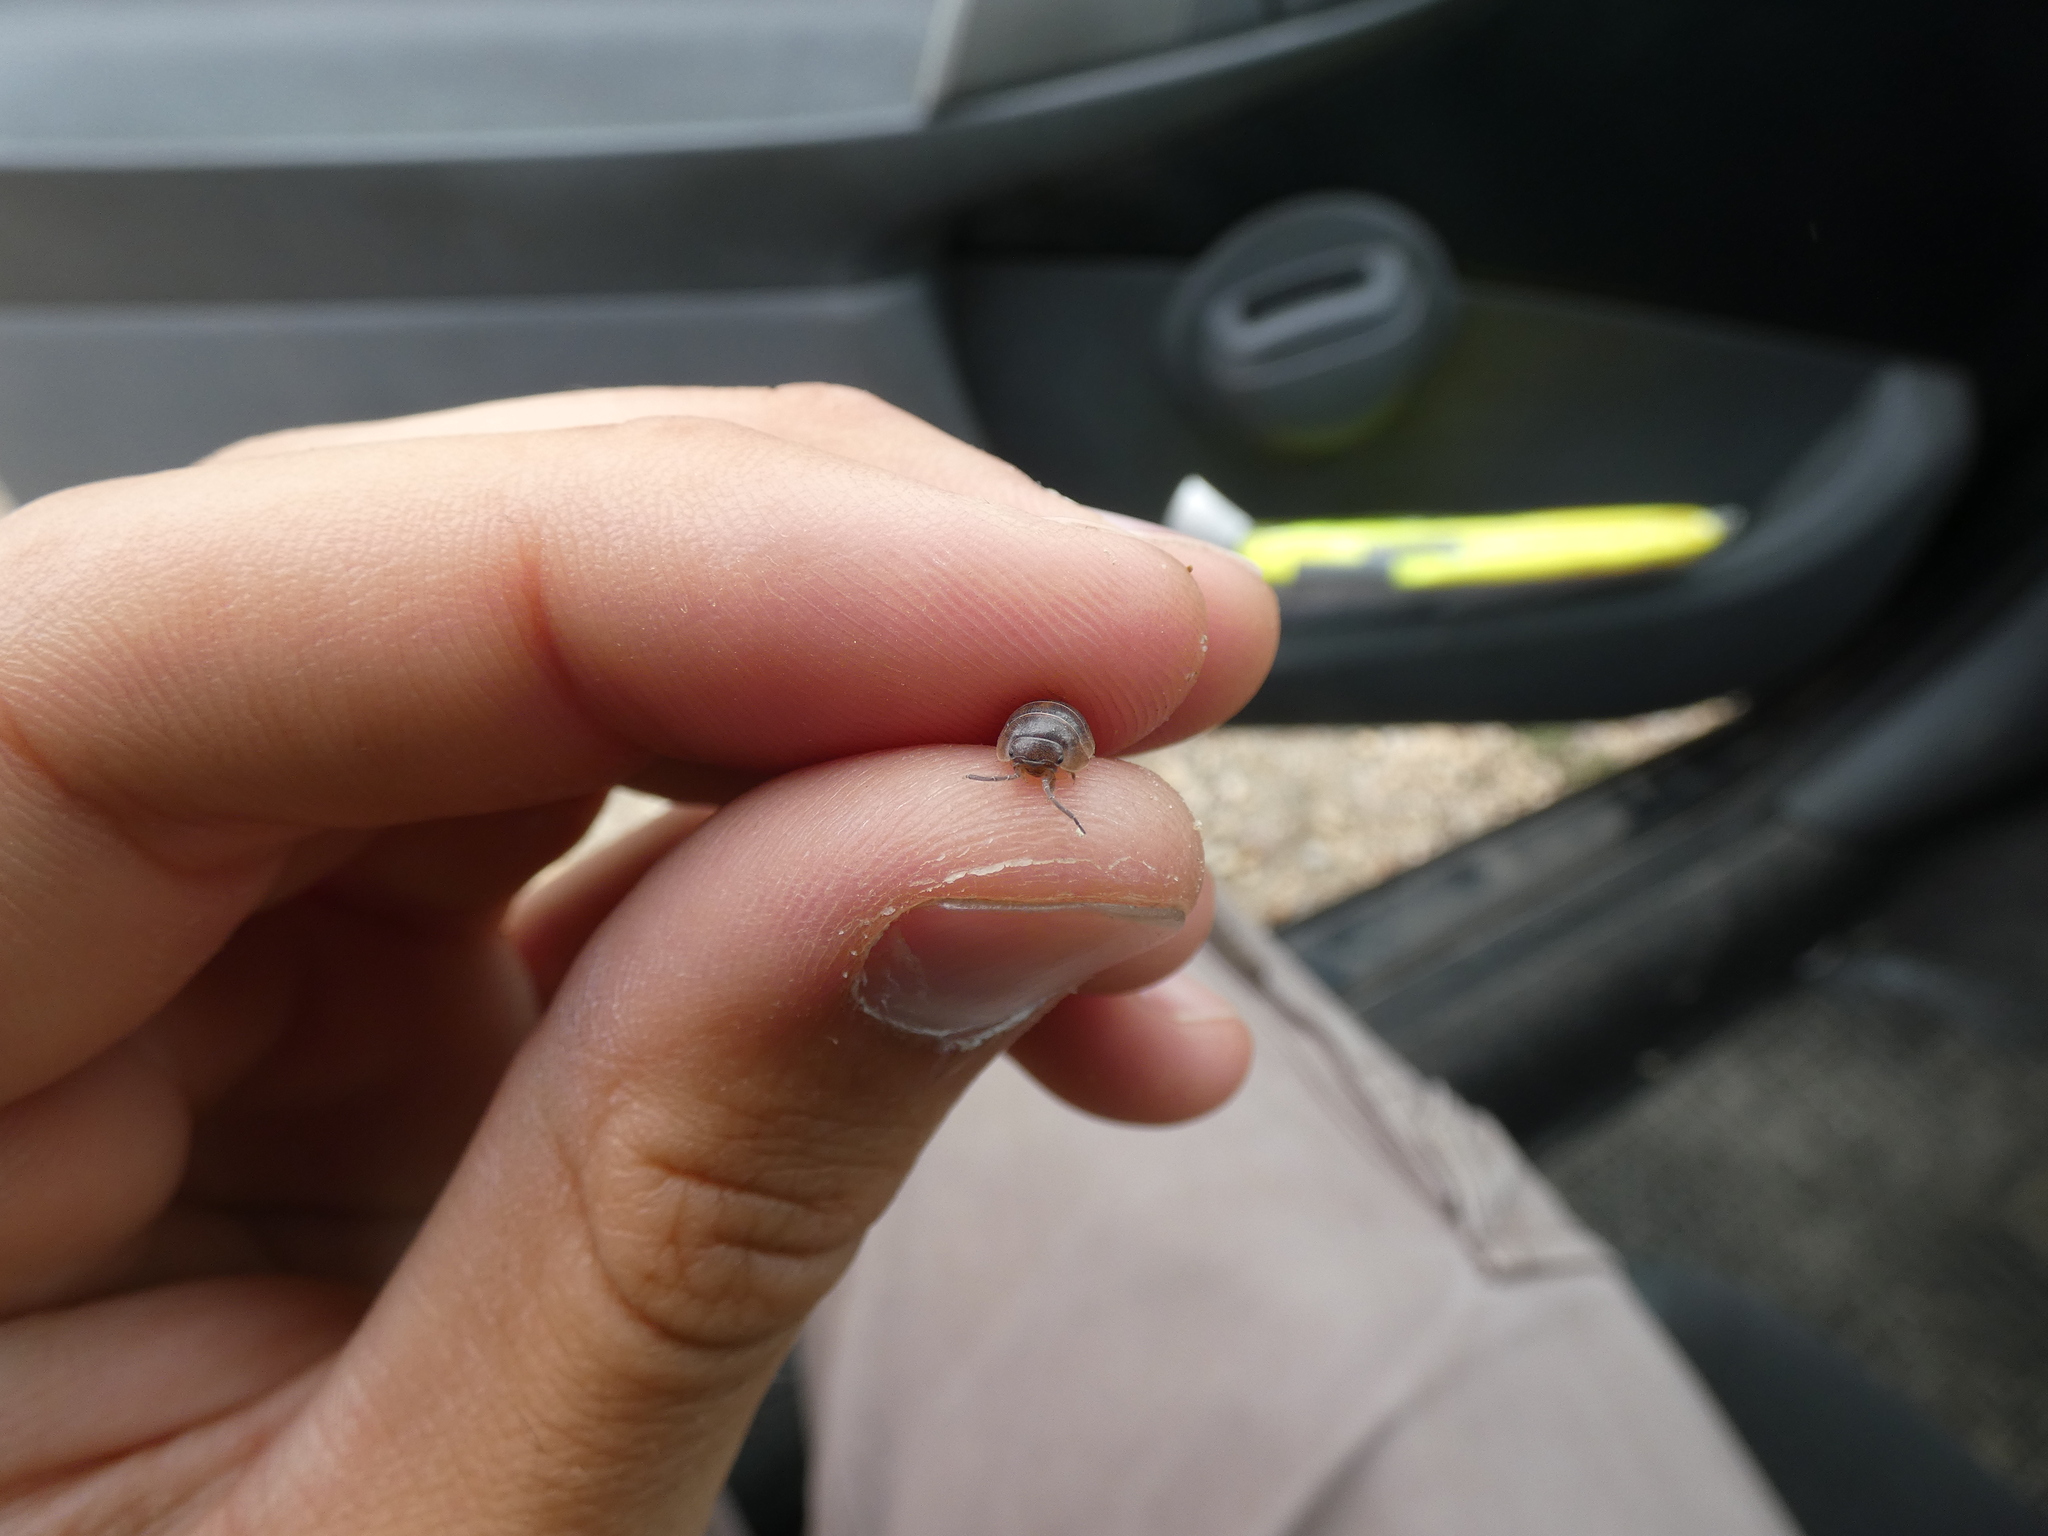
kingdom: Animalia
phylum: Arthropoda
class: Malacostraca
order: Isopoda
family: Armadillidiidae
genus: Armadillidium
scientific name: Armadillidium arcangelii
